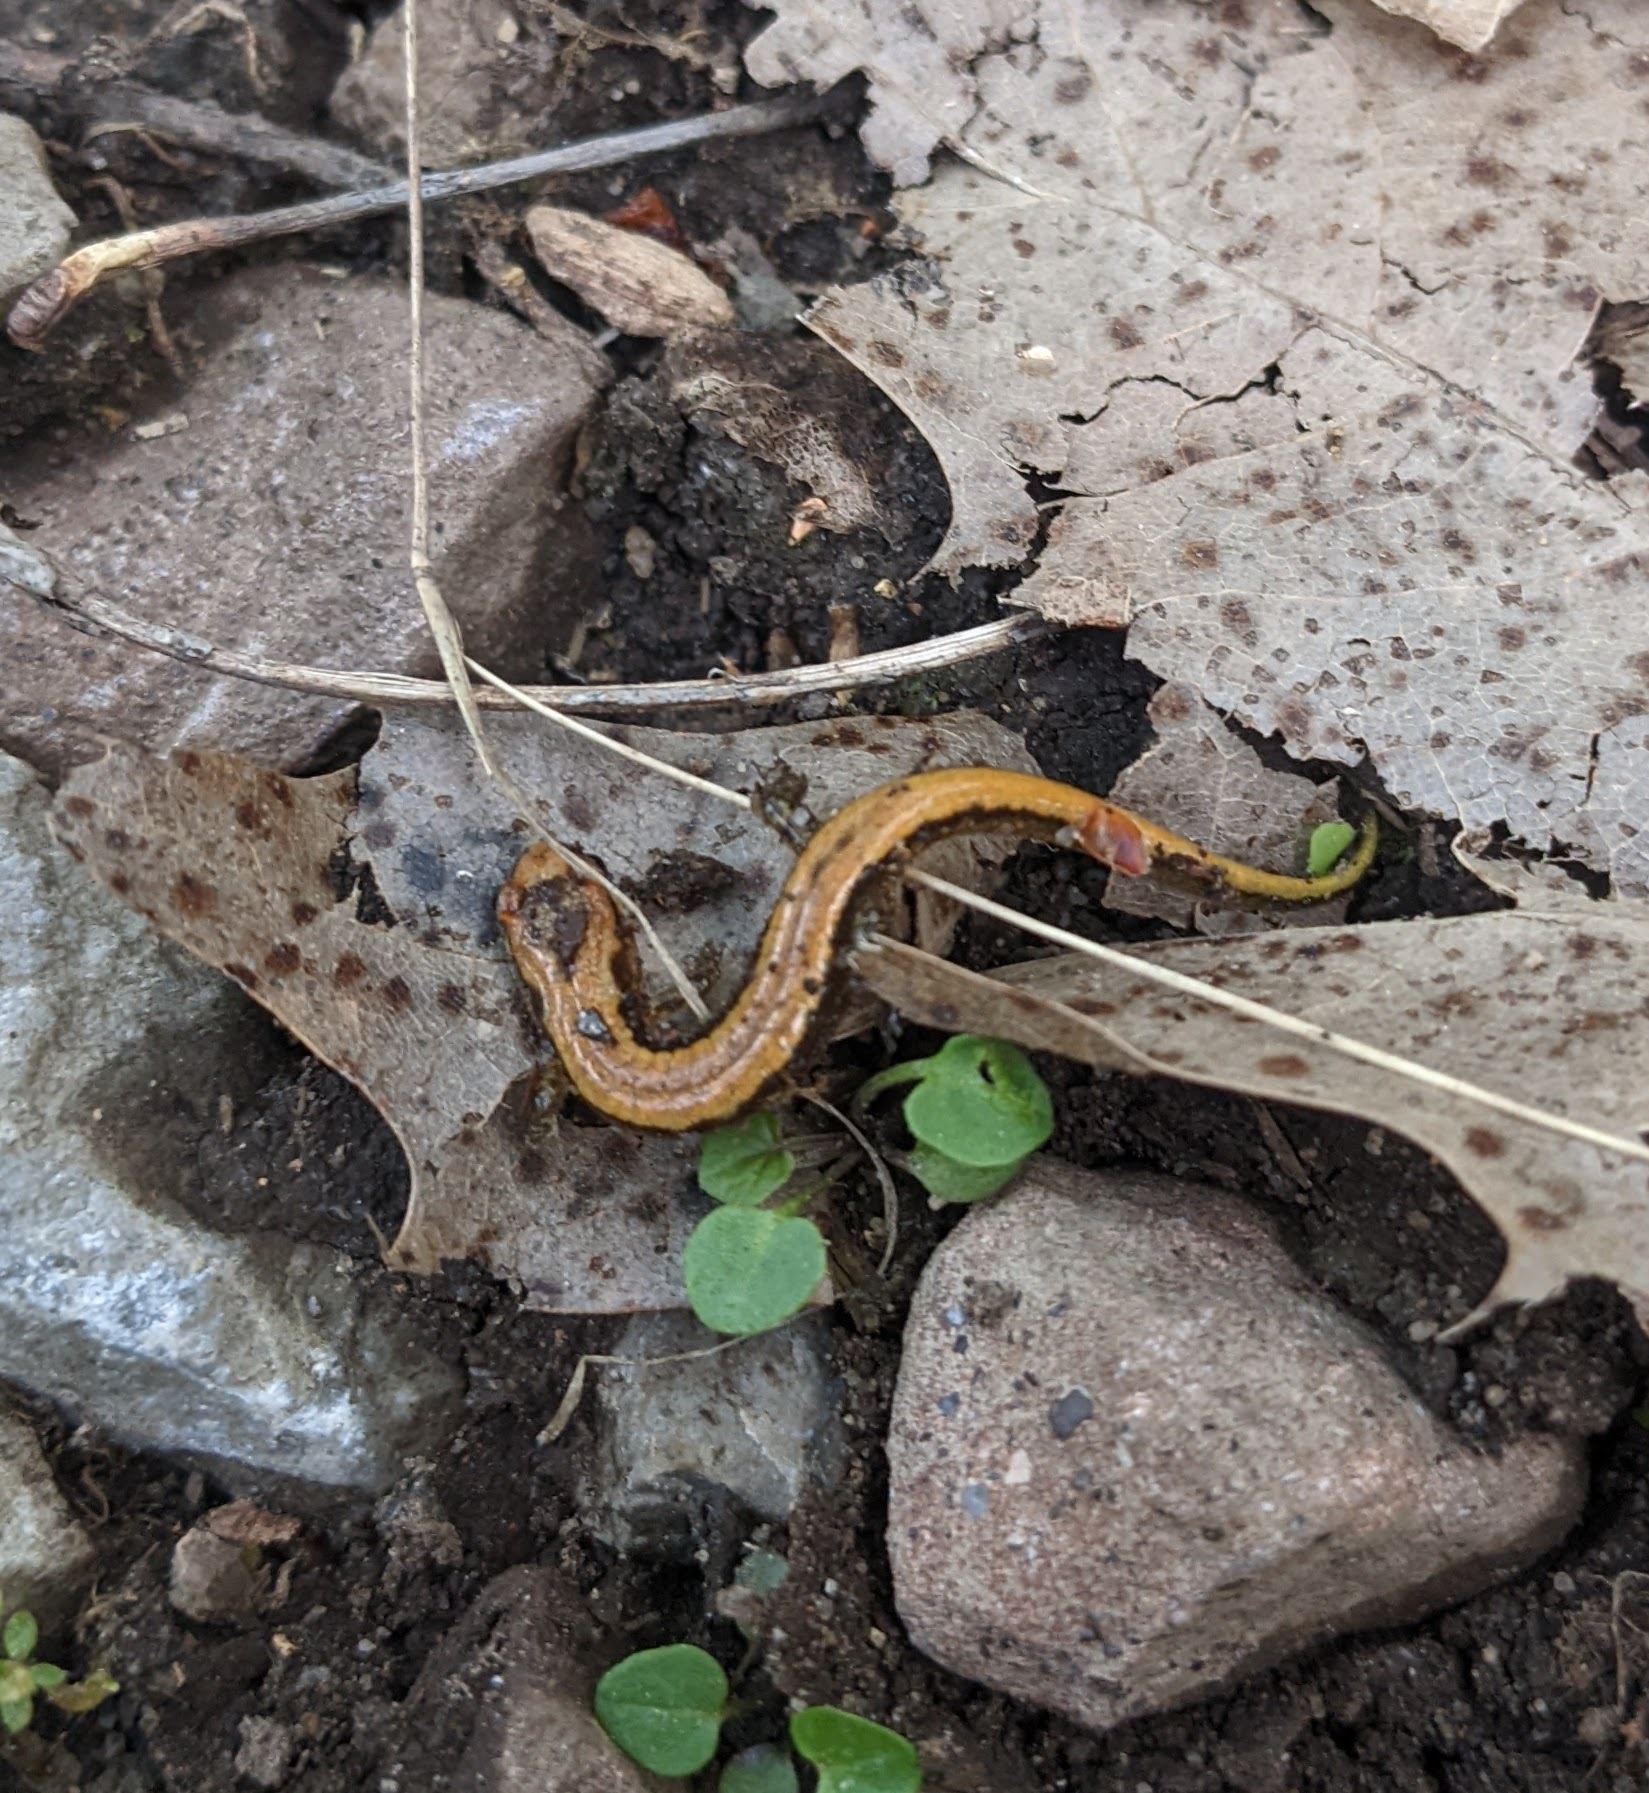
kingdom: Animalia
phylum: Chordata
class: Amphibia
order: Caudata
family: Plethodontidae
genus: Desmognathus
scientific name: Desmognathus ochrophaeus
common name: Allegheny mountain dusky salamander
